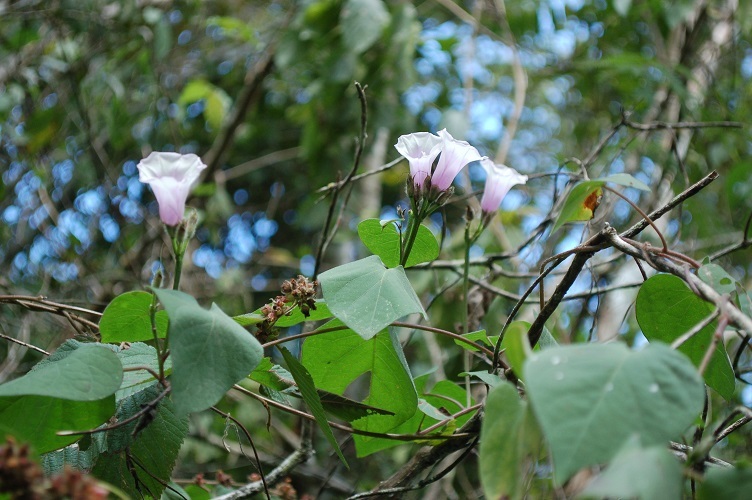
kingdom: Plantae
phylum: Tracheophyta
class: Magnoliopsida
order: Solanales
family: Convolvulaceae
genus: Ipomoea
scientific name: Ipomoea batatas
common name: Sweet-potato
